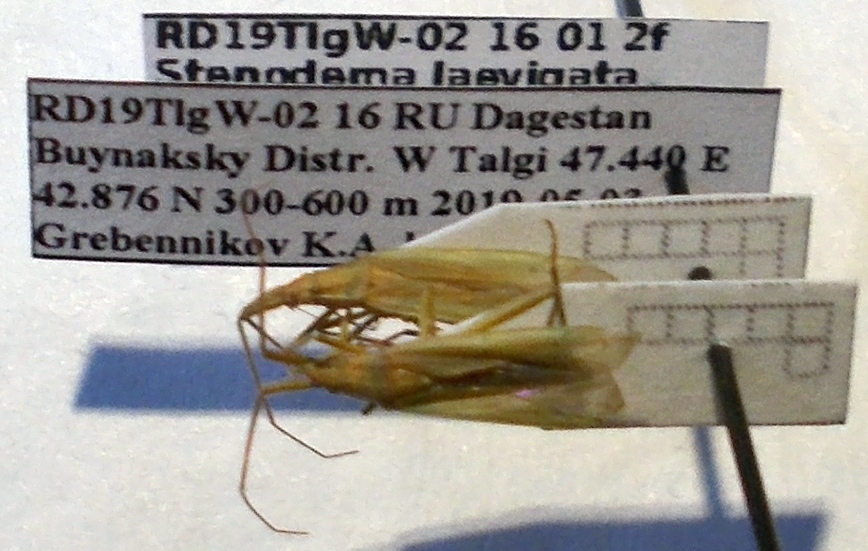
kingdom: Animalia
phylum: Arthropoda
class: Insecta
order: Hemiptera
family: Miridae
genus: Stenodema
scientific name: Stenodema laevigata
